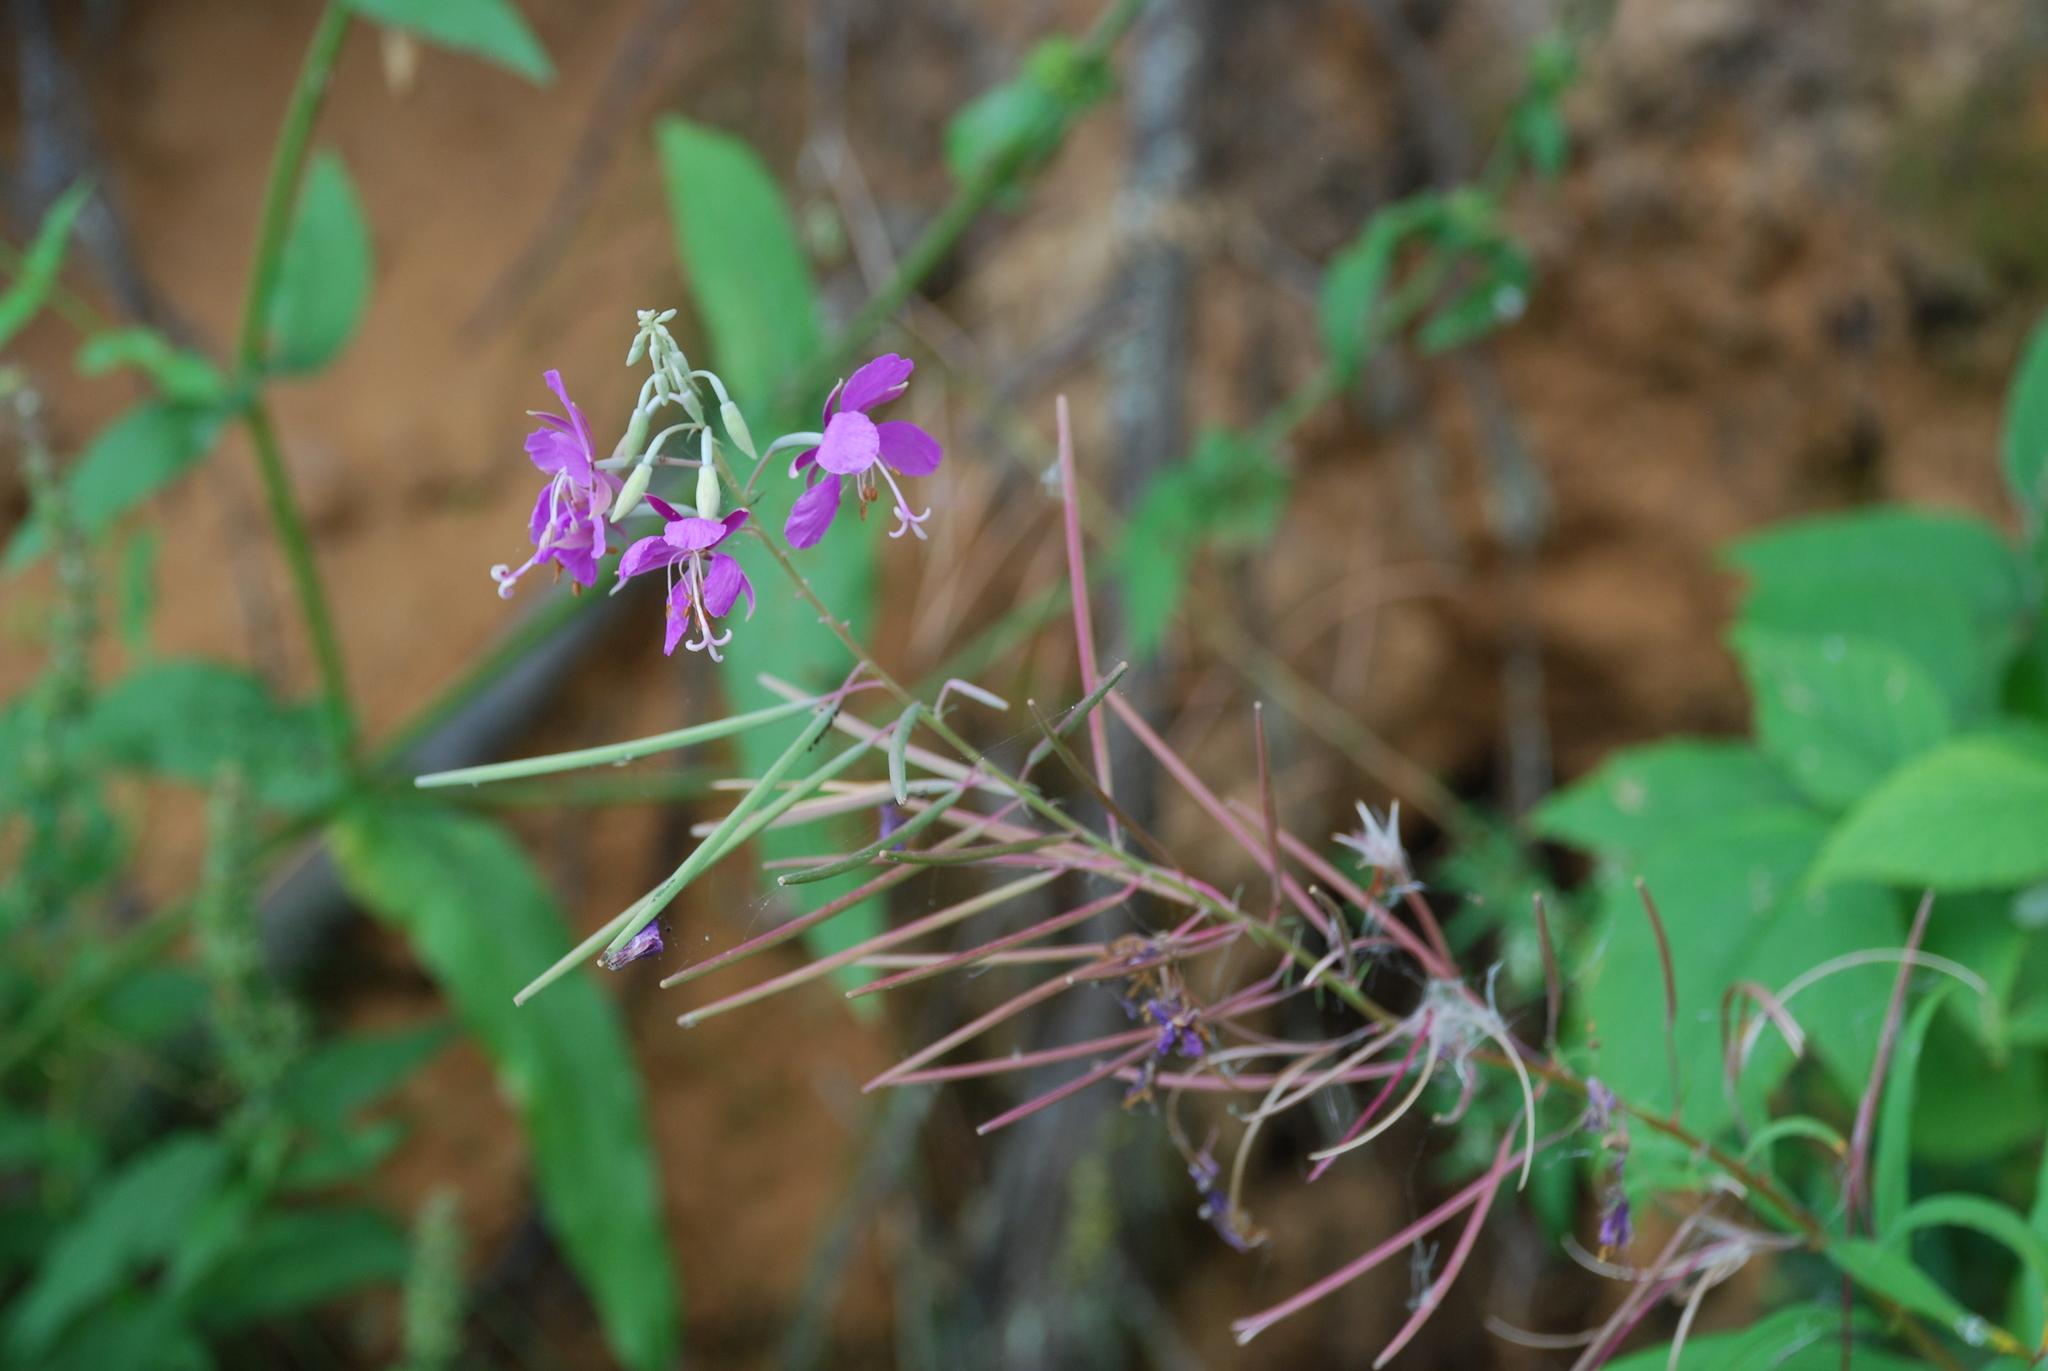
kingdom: Plantae
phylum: Tracheophyta
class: Magnoliopsida
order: Myrtales
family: Onagraceae
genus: Chamaenerion
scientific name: Chamaenerion angustifolium
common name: Fireweed
